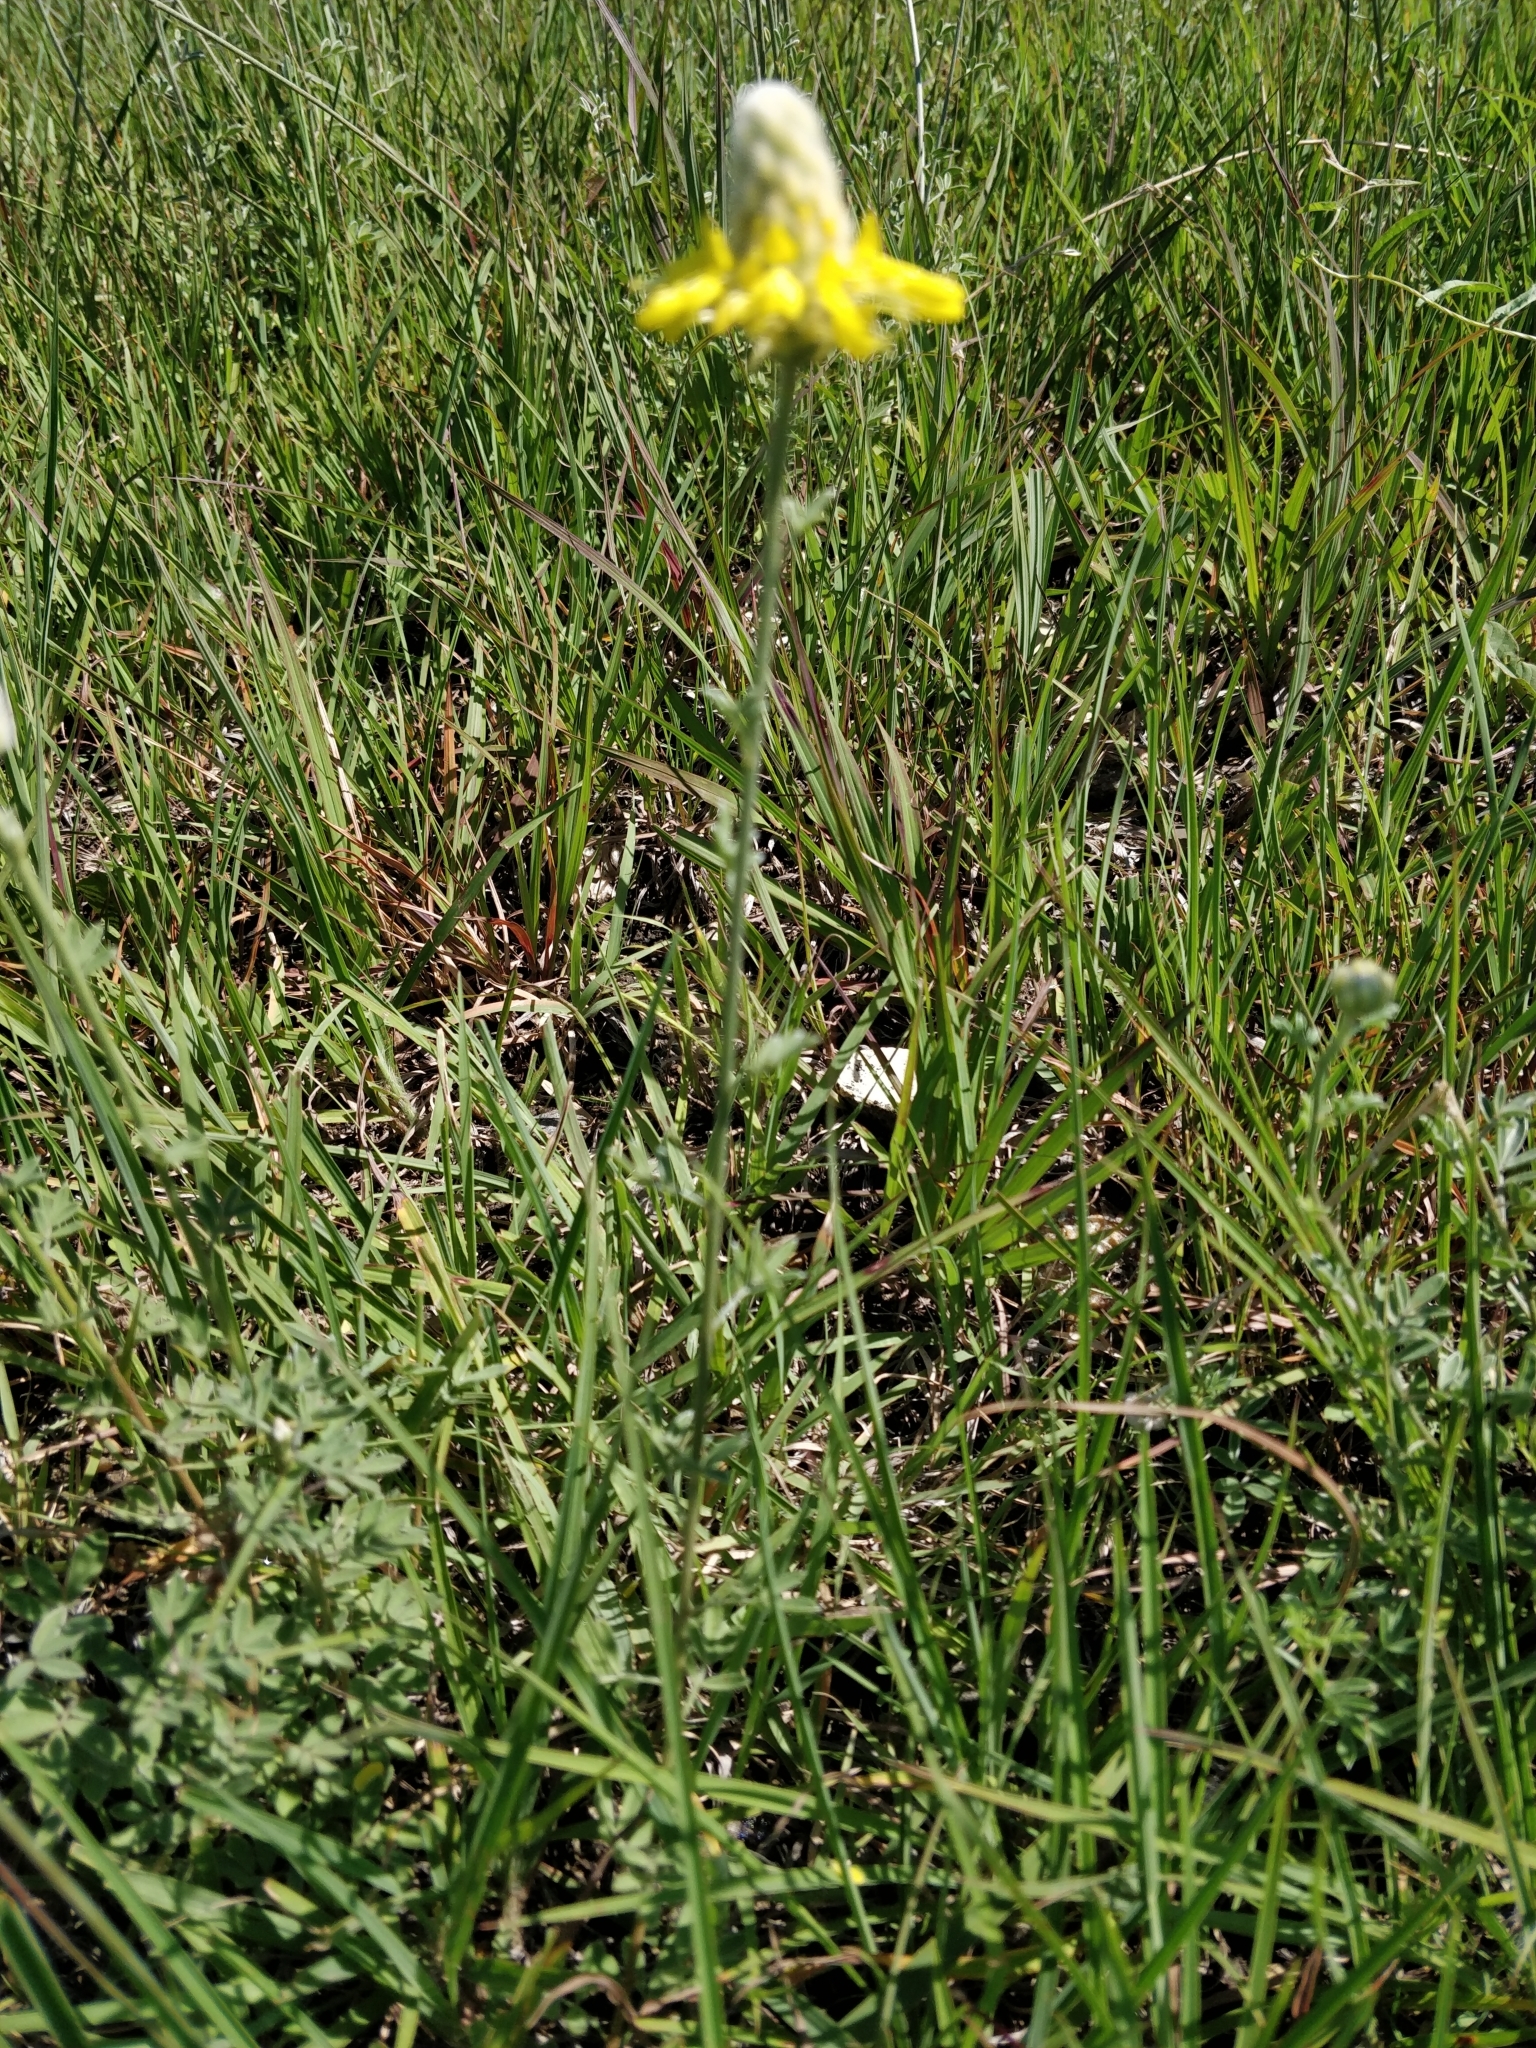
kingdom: Plantae
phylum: Tracheophyta
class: Magnoliopsida
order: Fabales
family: Fabaceae
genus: Dalea
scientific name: Dalea aurea
